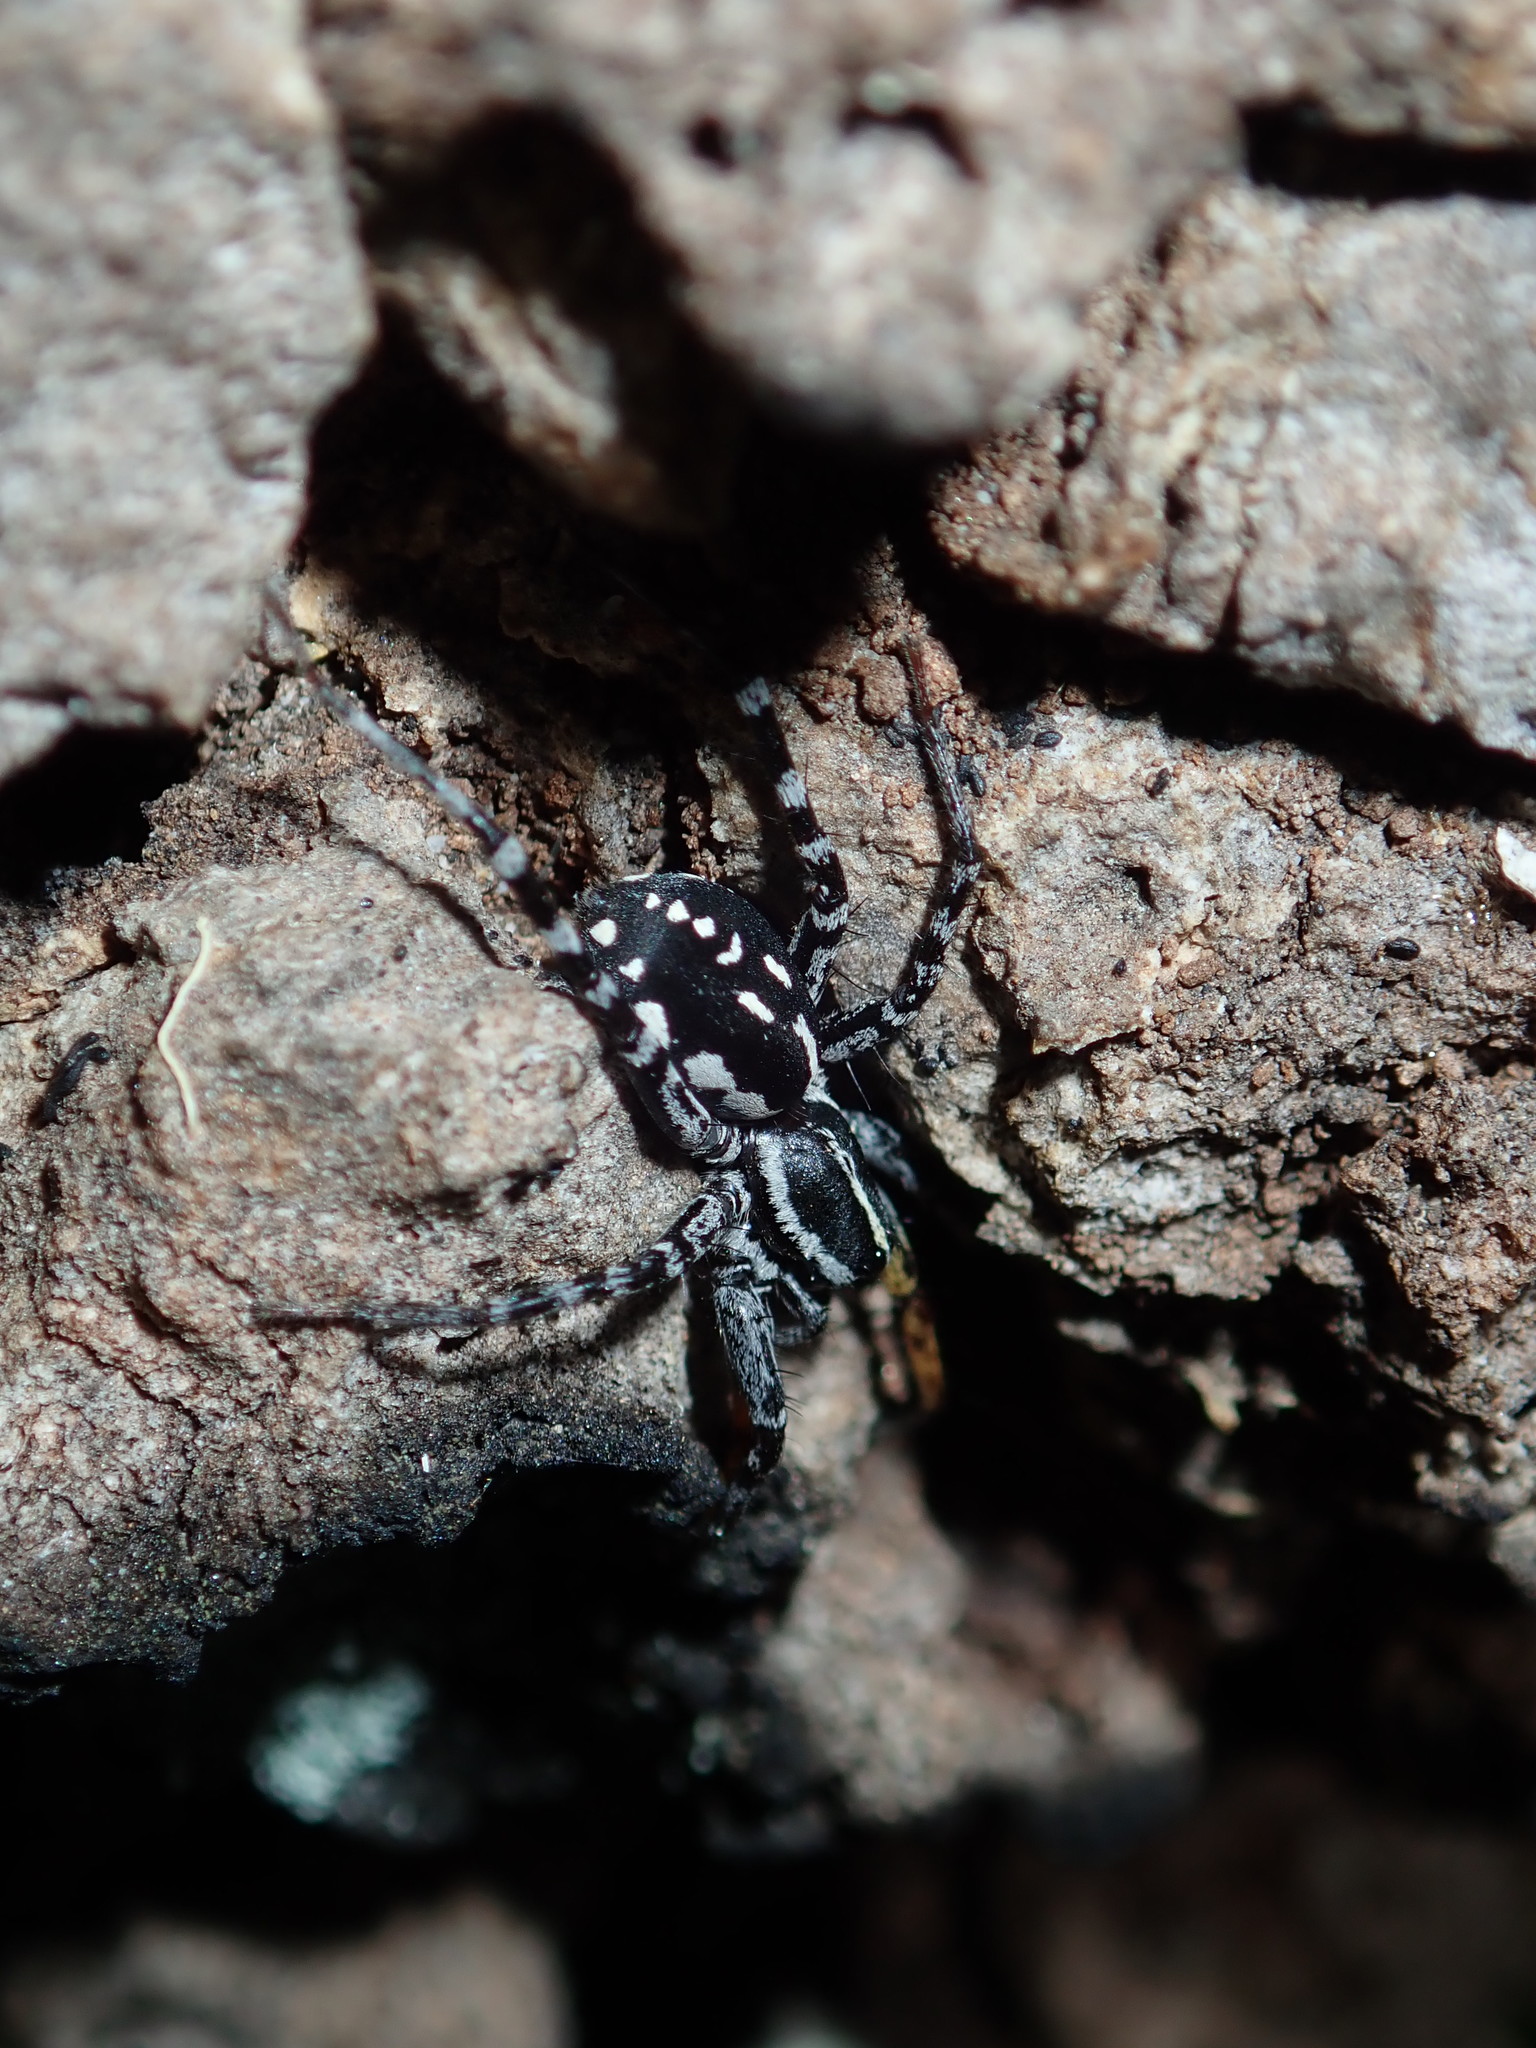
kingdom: Animalia
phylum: Arthropoda
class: Arachnida
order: Araneae
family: Corinnidae
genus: Nyssus
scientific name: Nyssus coloripes
